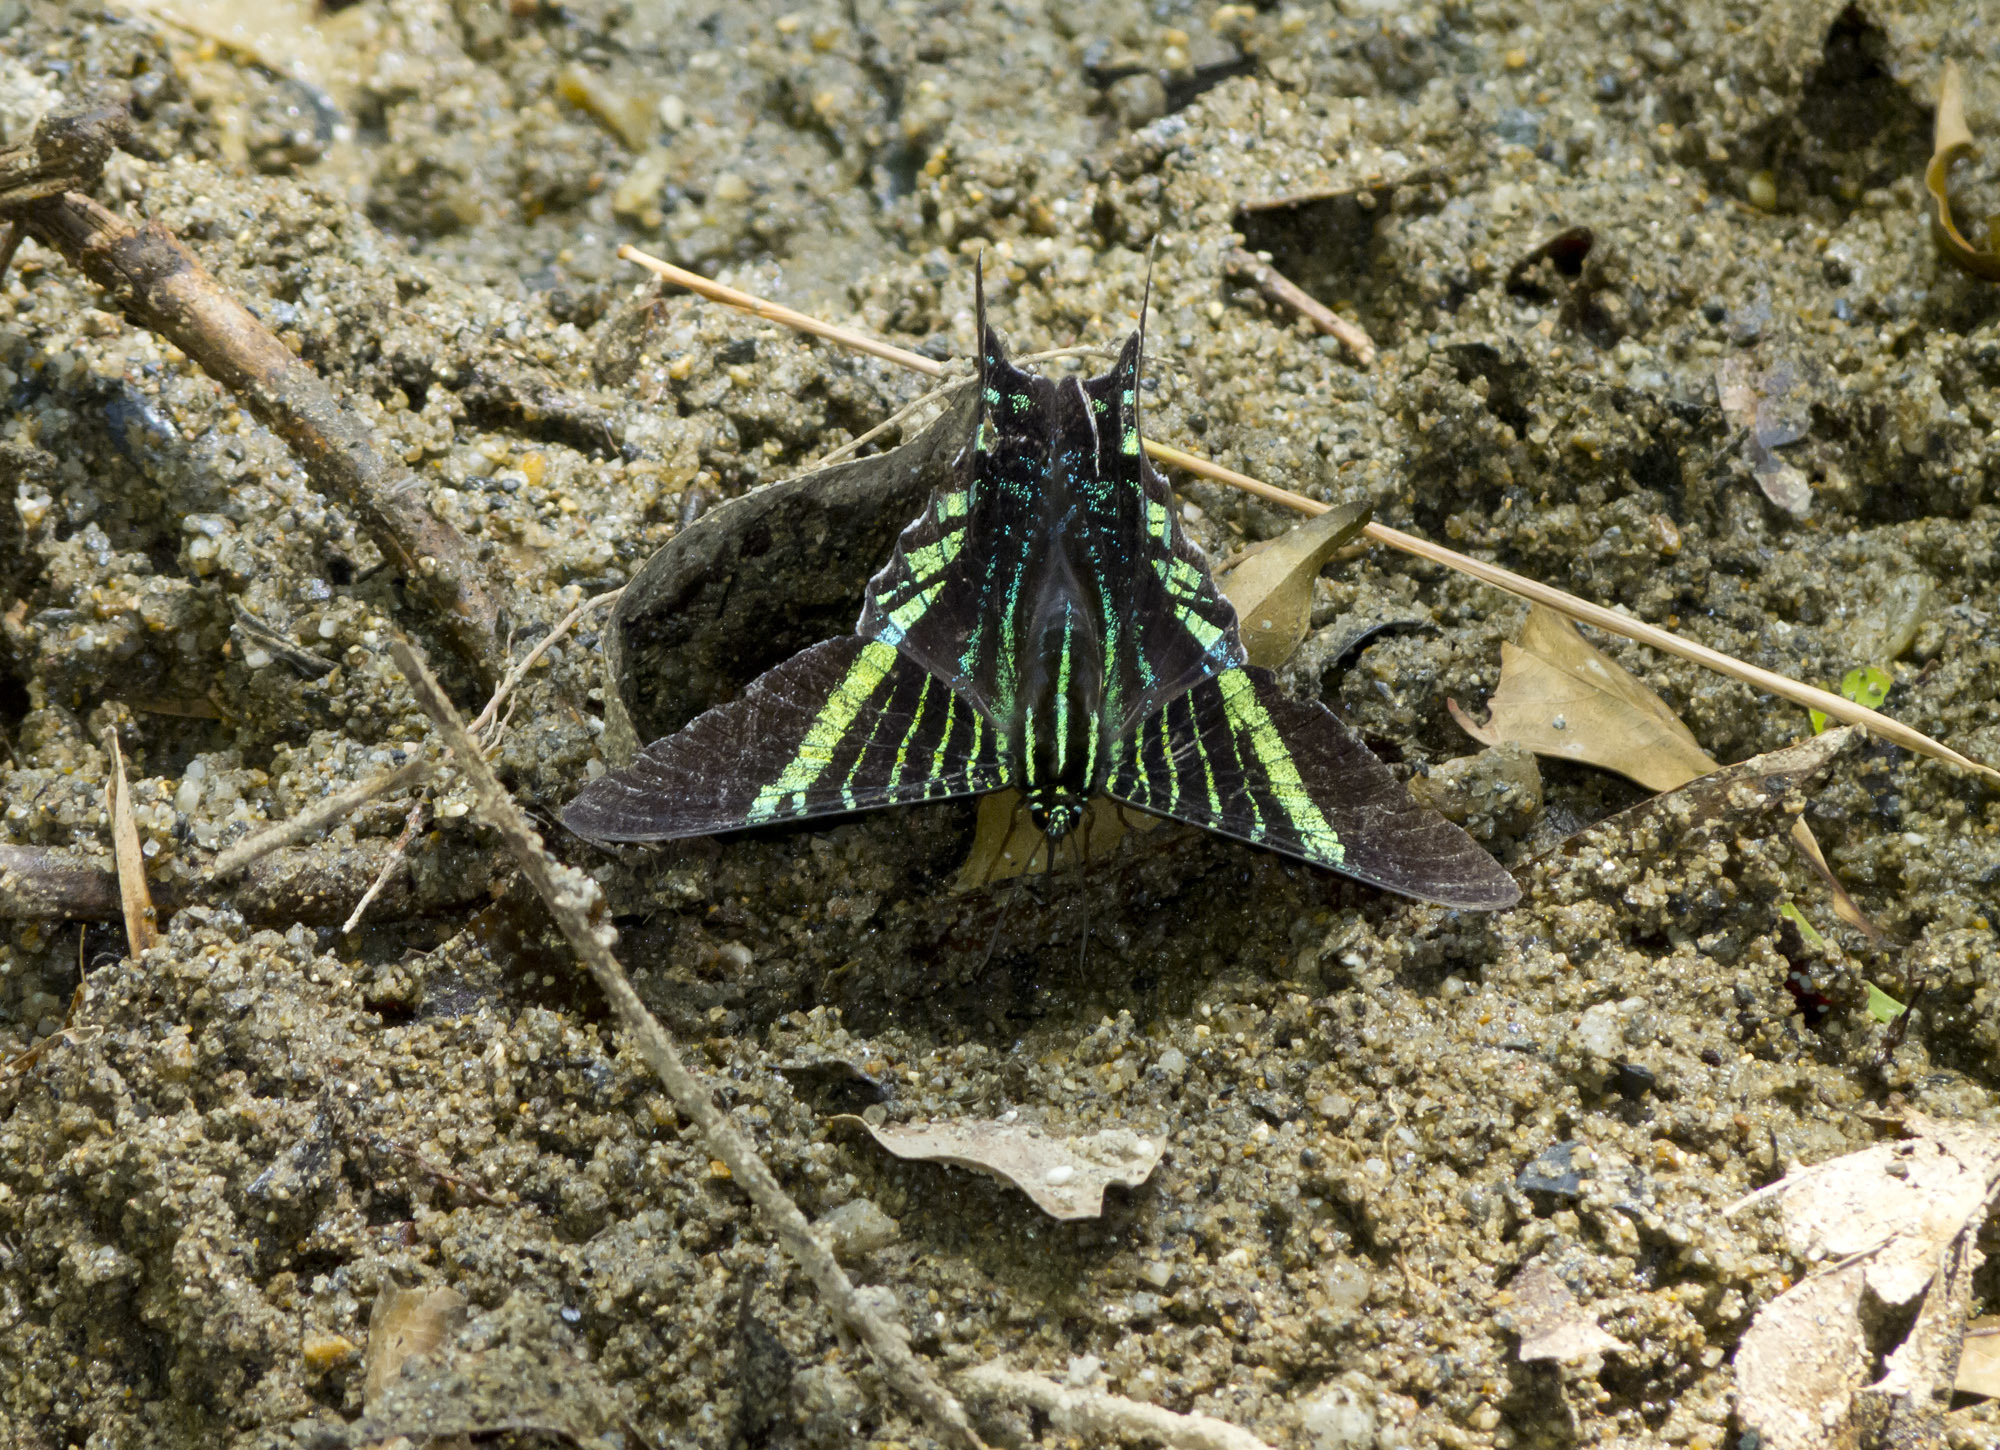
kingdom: Animalia
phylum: Arthropoda
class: Insecta
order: Lepidoptera
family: Uraniidae
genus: Urania
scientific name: Urania fulgens
